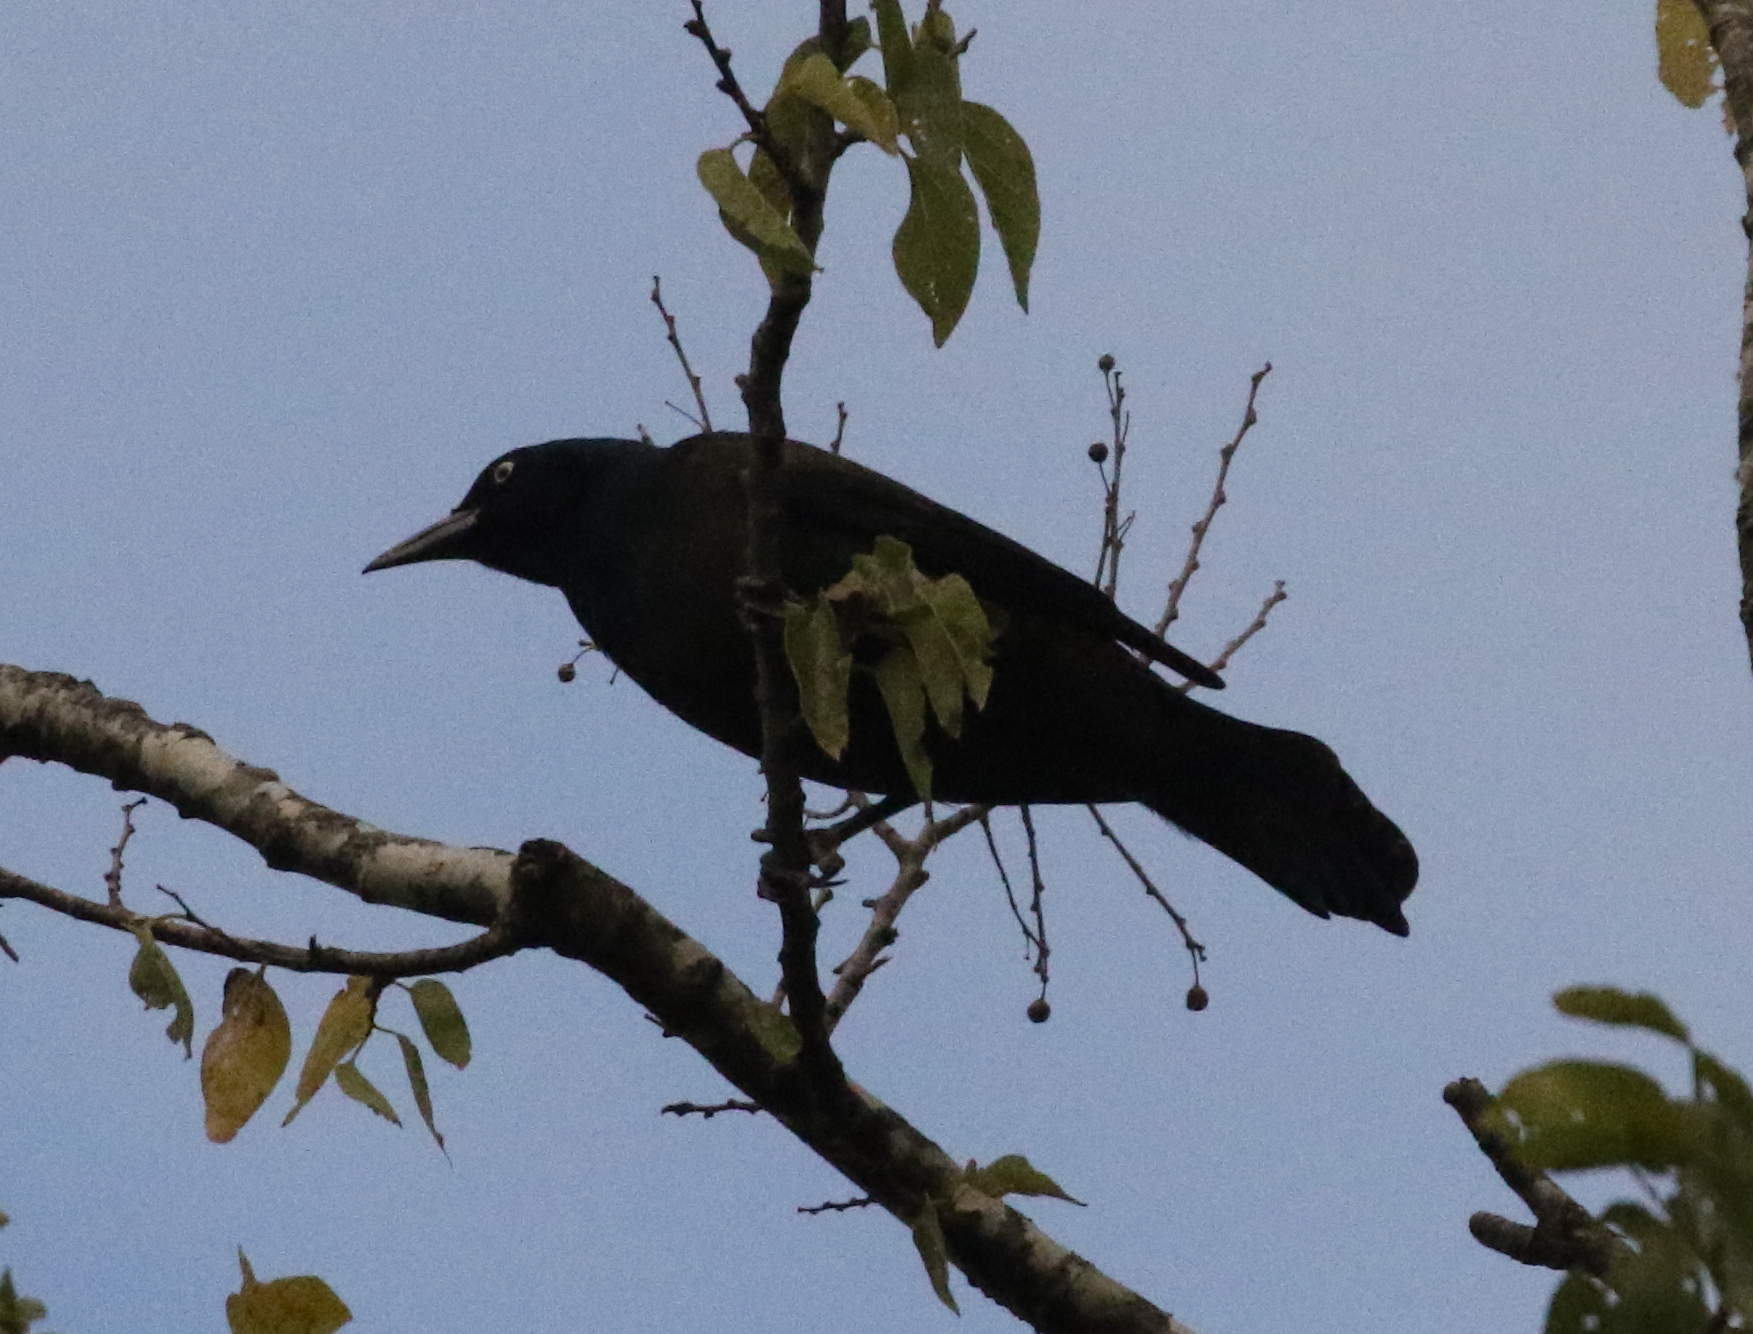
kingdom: Animalia
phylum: Chordata
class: Aves
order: Passeriformes
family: Icteridae
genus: Quiscalus
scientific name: Quiscalus quiscula
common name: Common grackle
